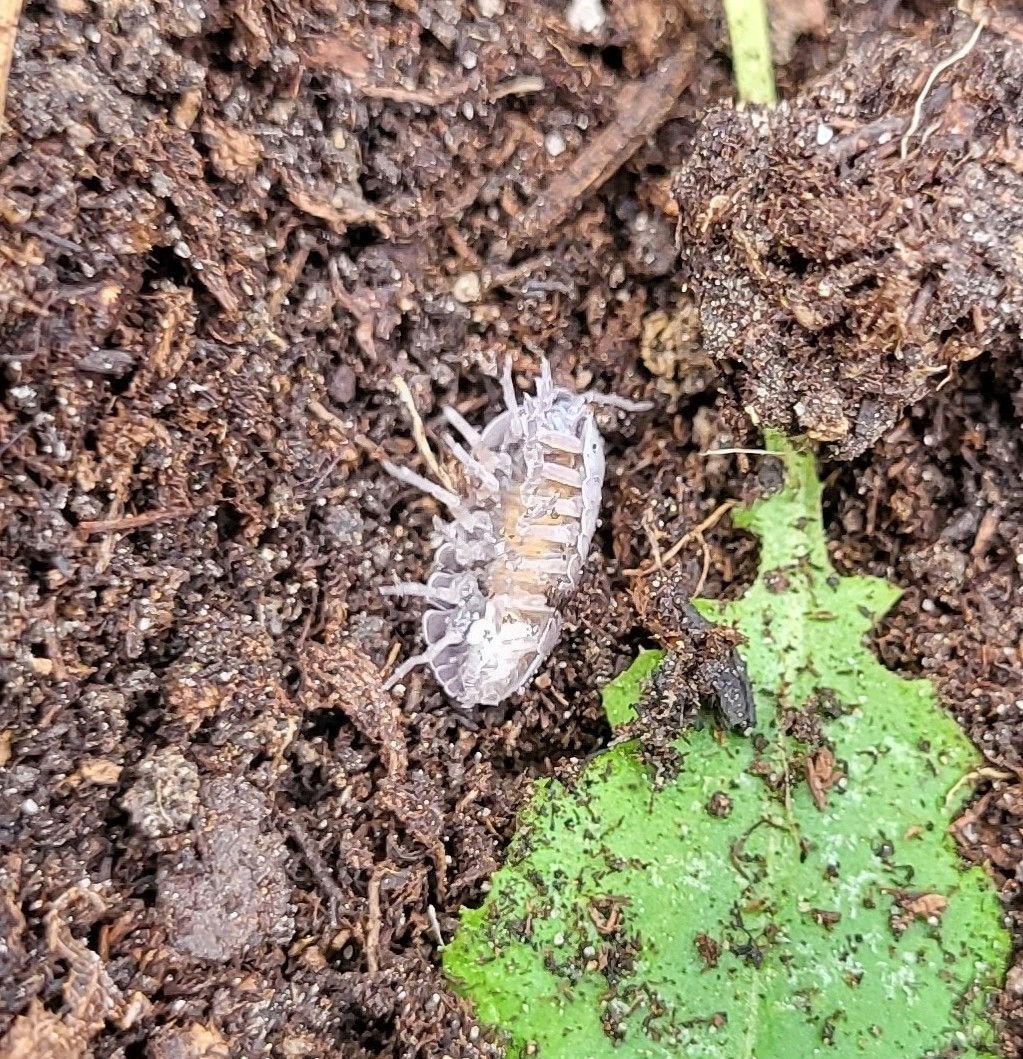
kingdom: Animalia
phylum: Arthropoda
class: Malacostraca
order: Isopoda
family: Armadillidiidae
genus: Armadillidium
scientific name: Armadillidium vulgare
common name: Common pill woodlouse
